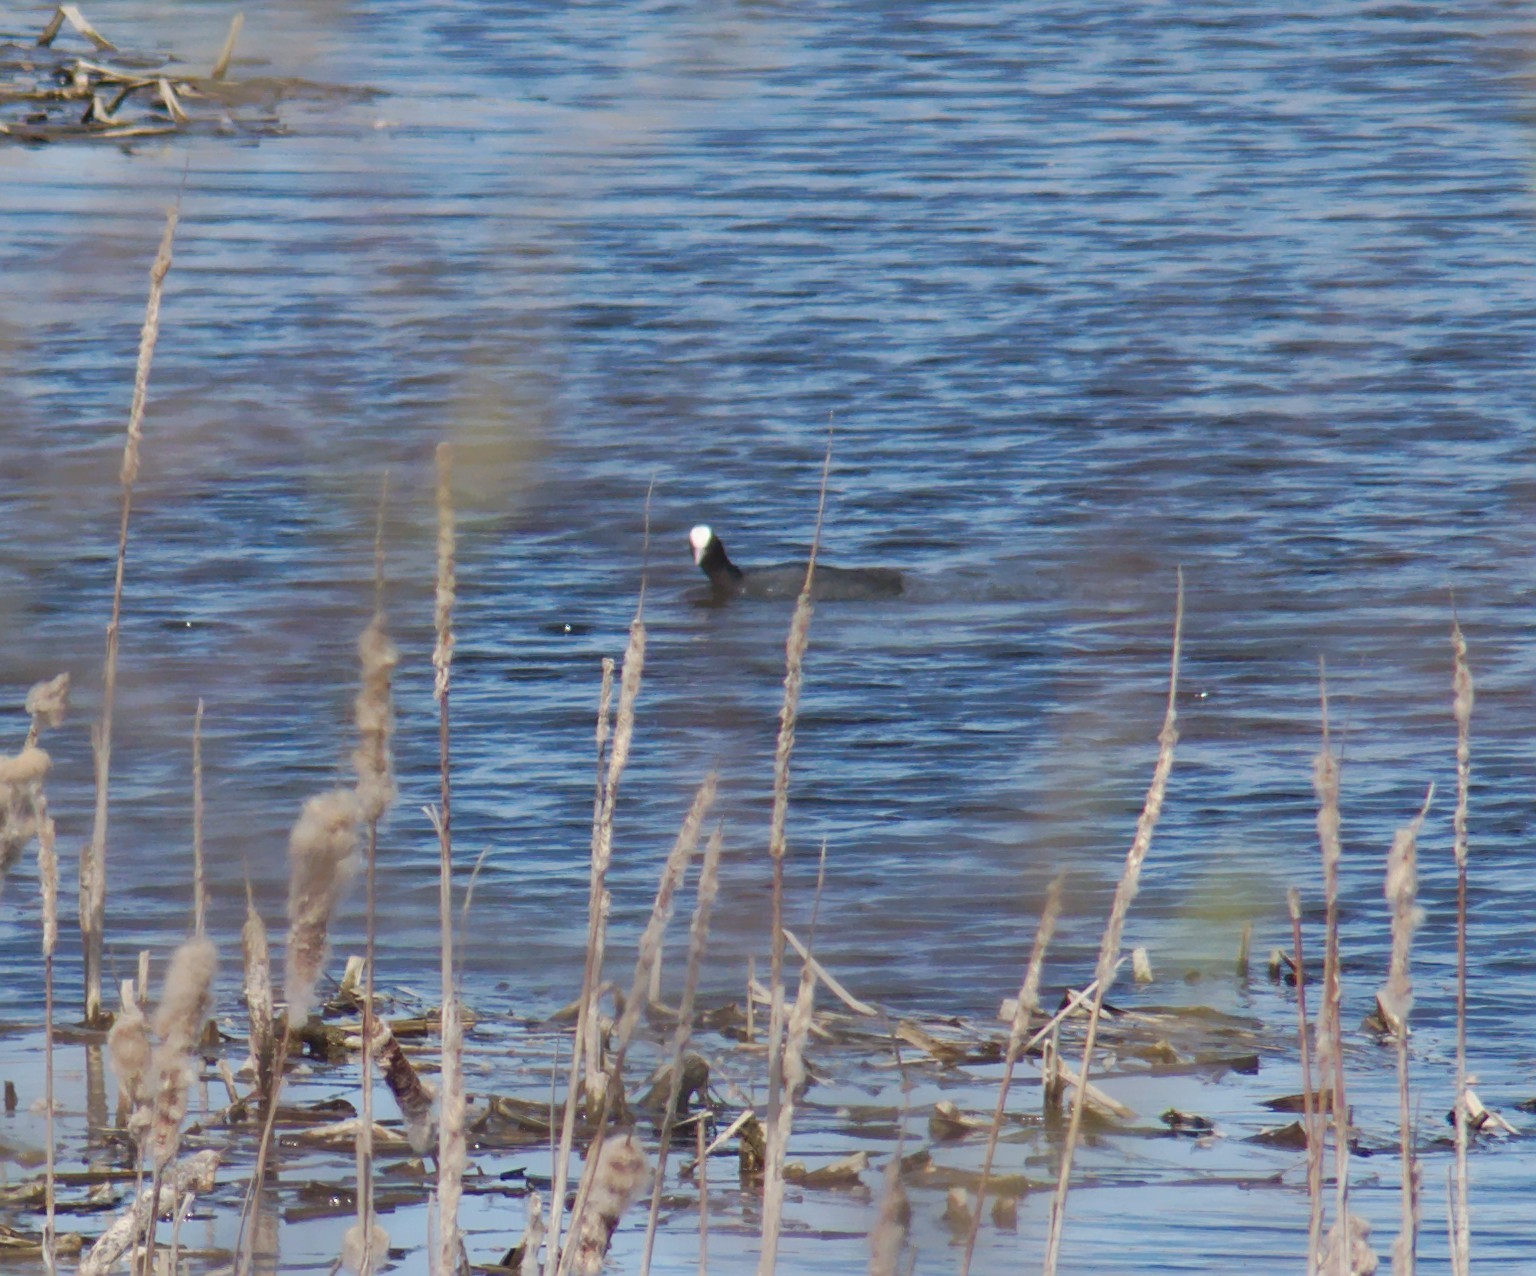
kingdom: Animalia
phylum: Chordata
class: Aves
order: Gruiformes
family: Rallidae
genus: Fulica
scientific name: Fulica atra
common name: Eurasian coot
